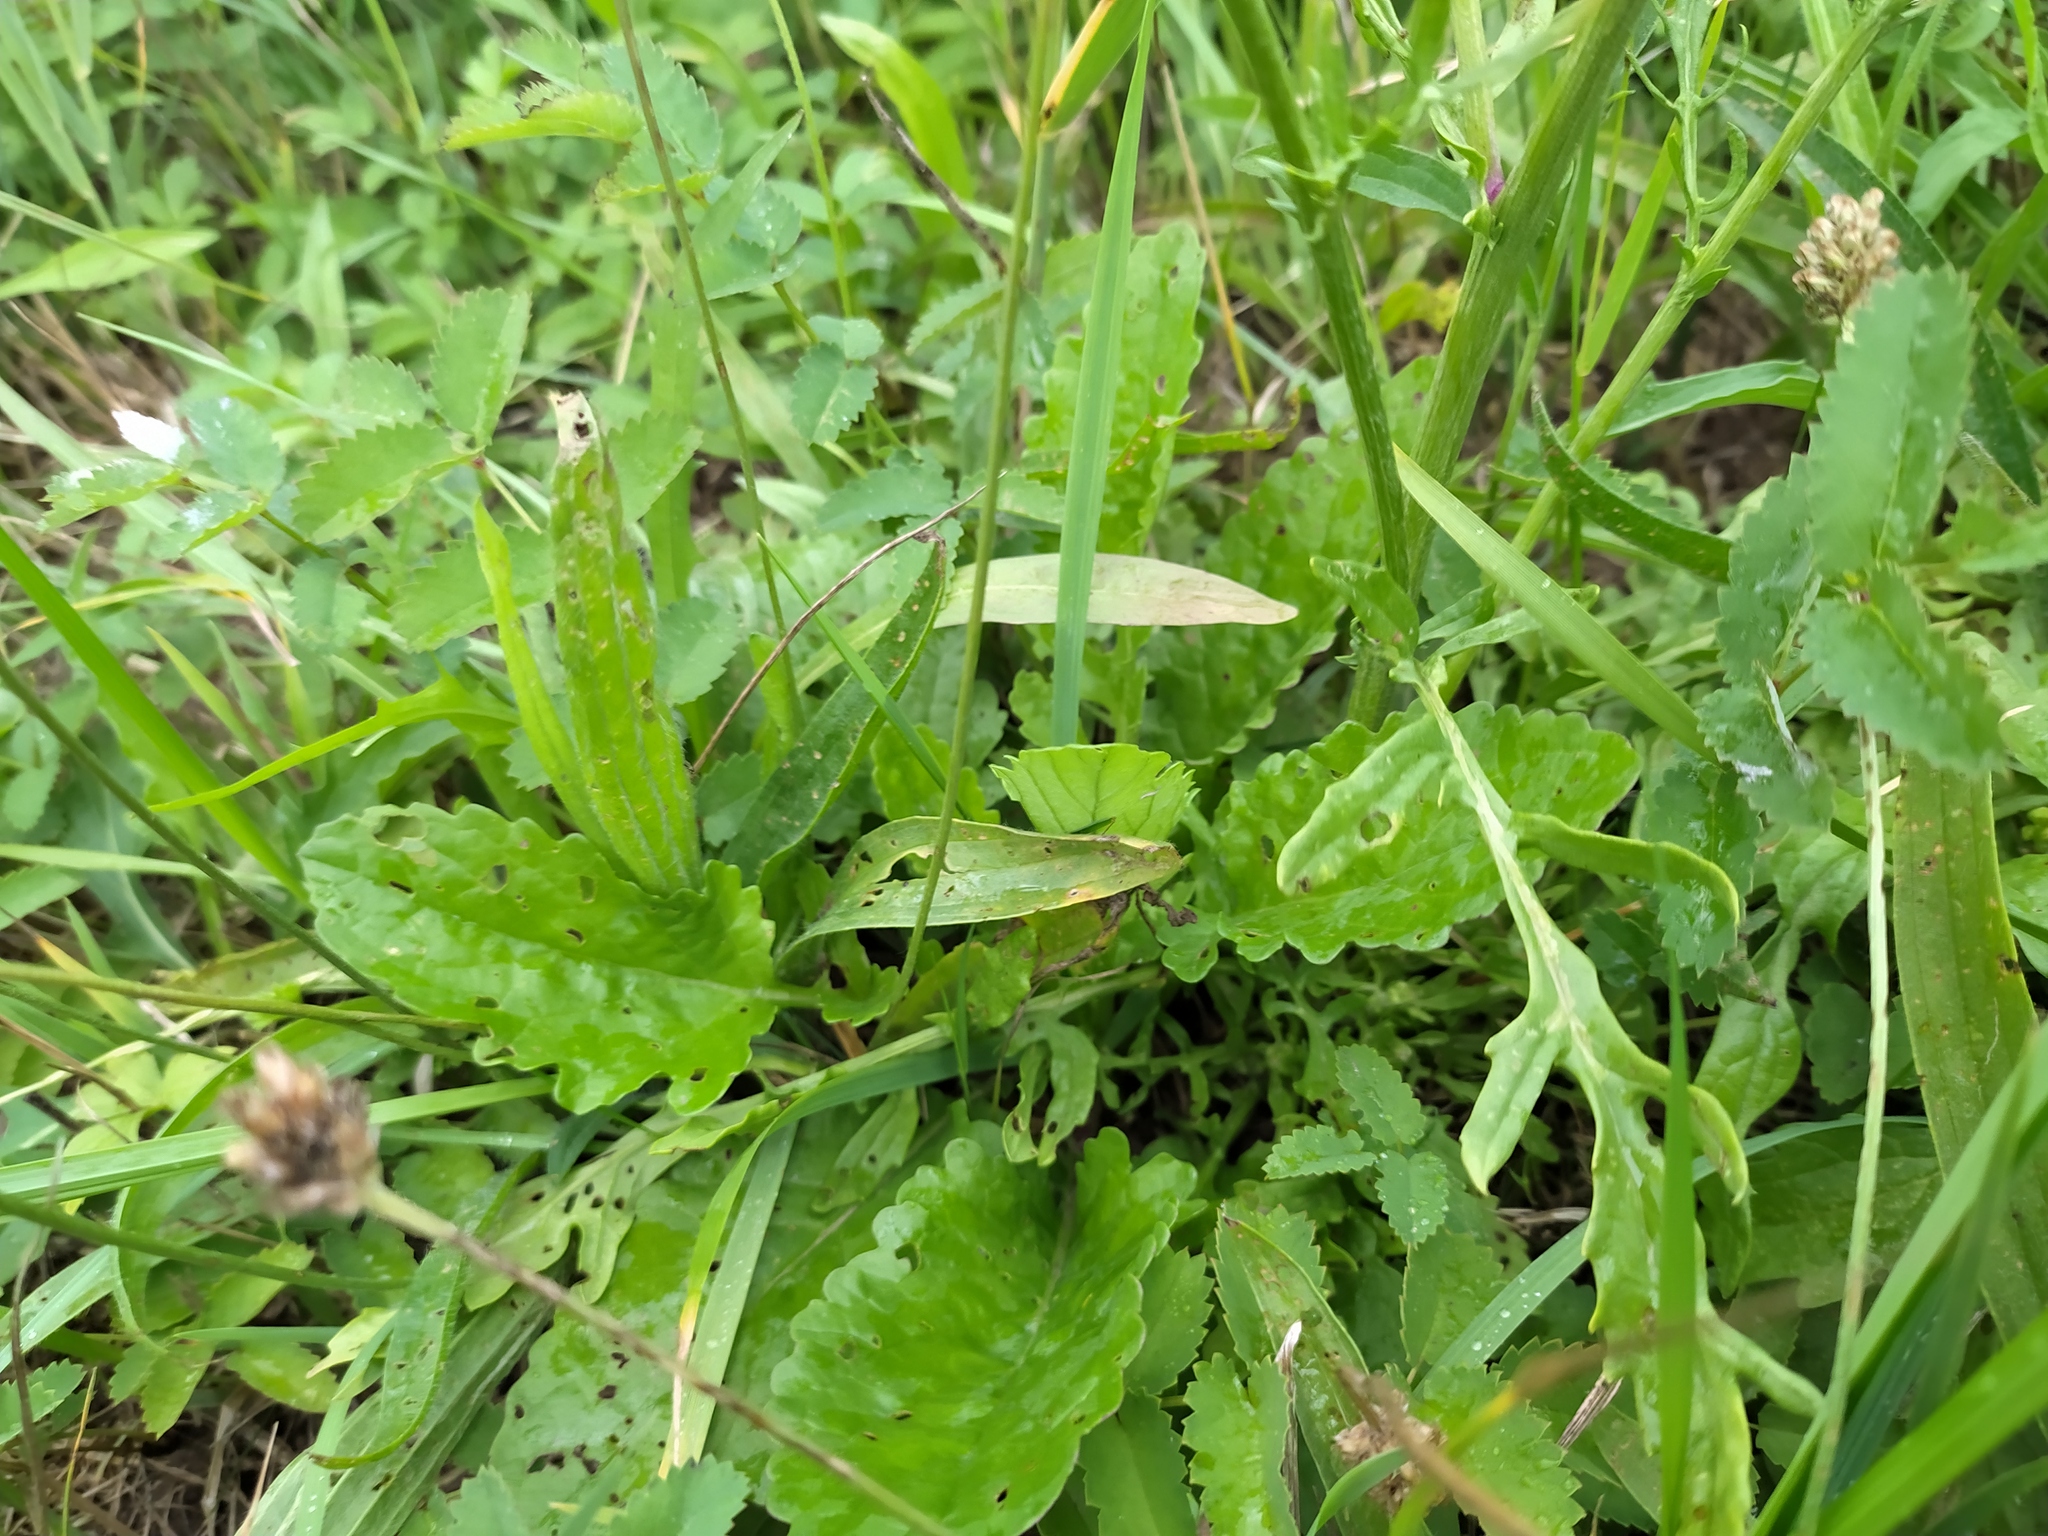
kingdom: Plantae
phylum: Tracheophyta
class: Magnoliopsida
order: Asterales
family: Asteraceae
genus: Jacobaea
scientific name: Jacobaea aquatica
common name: Water ragwort
